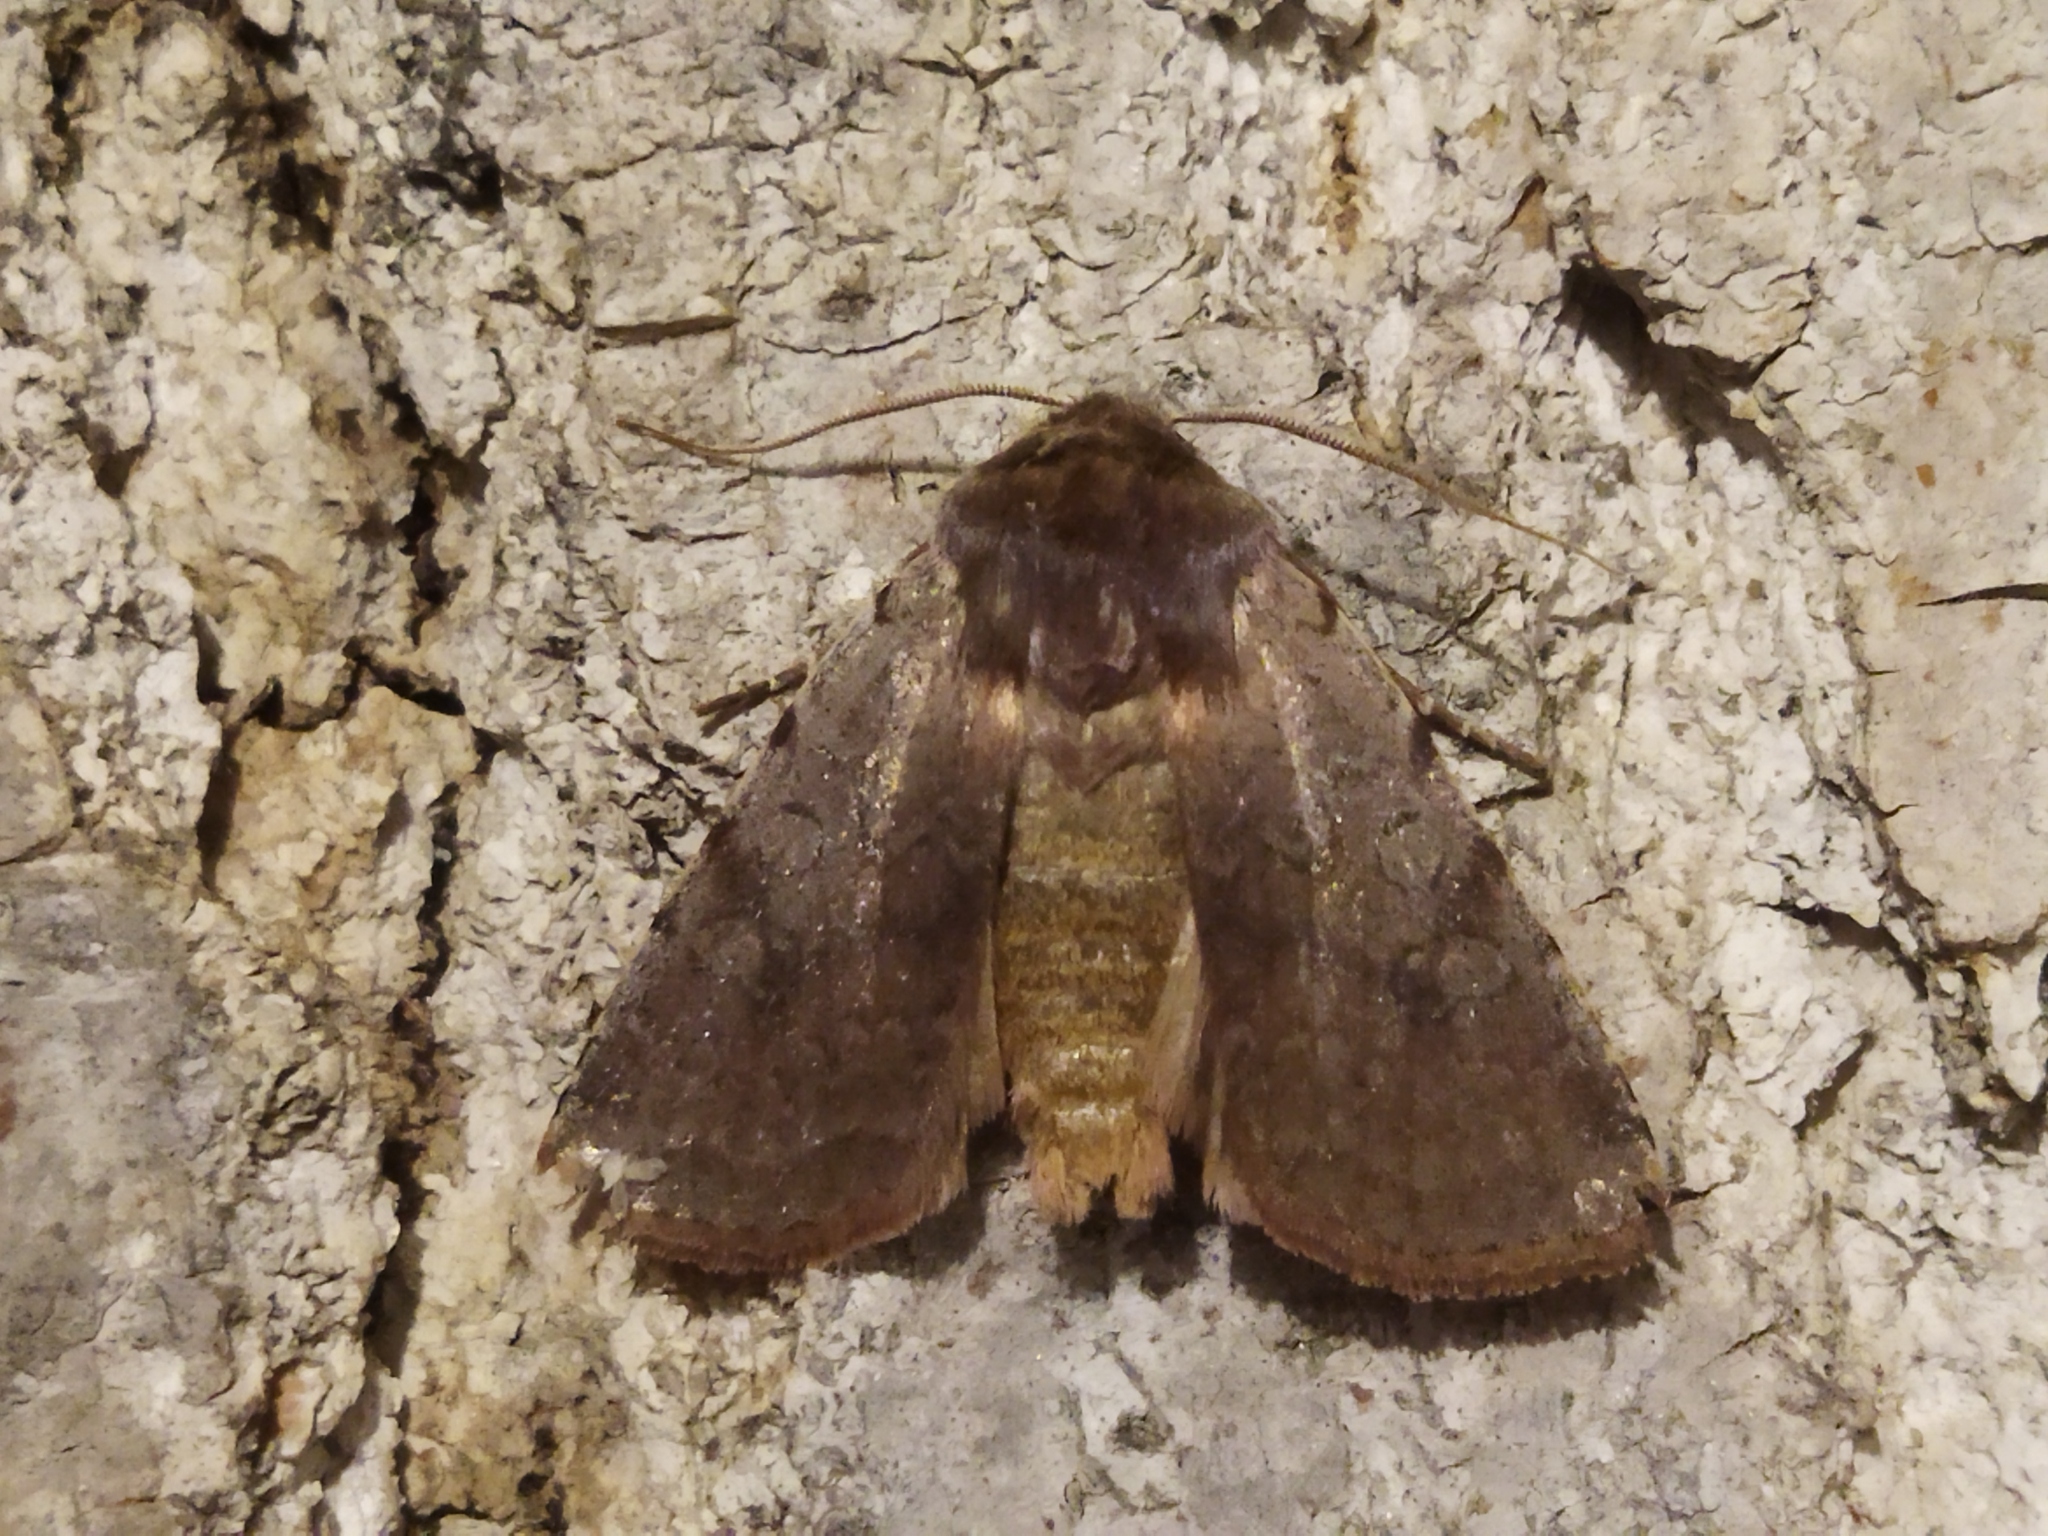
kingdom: Animalia
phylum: Arthropoda
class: Insecta
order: Lepidoptera
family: Noctuidae
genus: Cerastis
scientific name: Cerastis rubricosa
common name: Red chestnut
